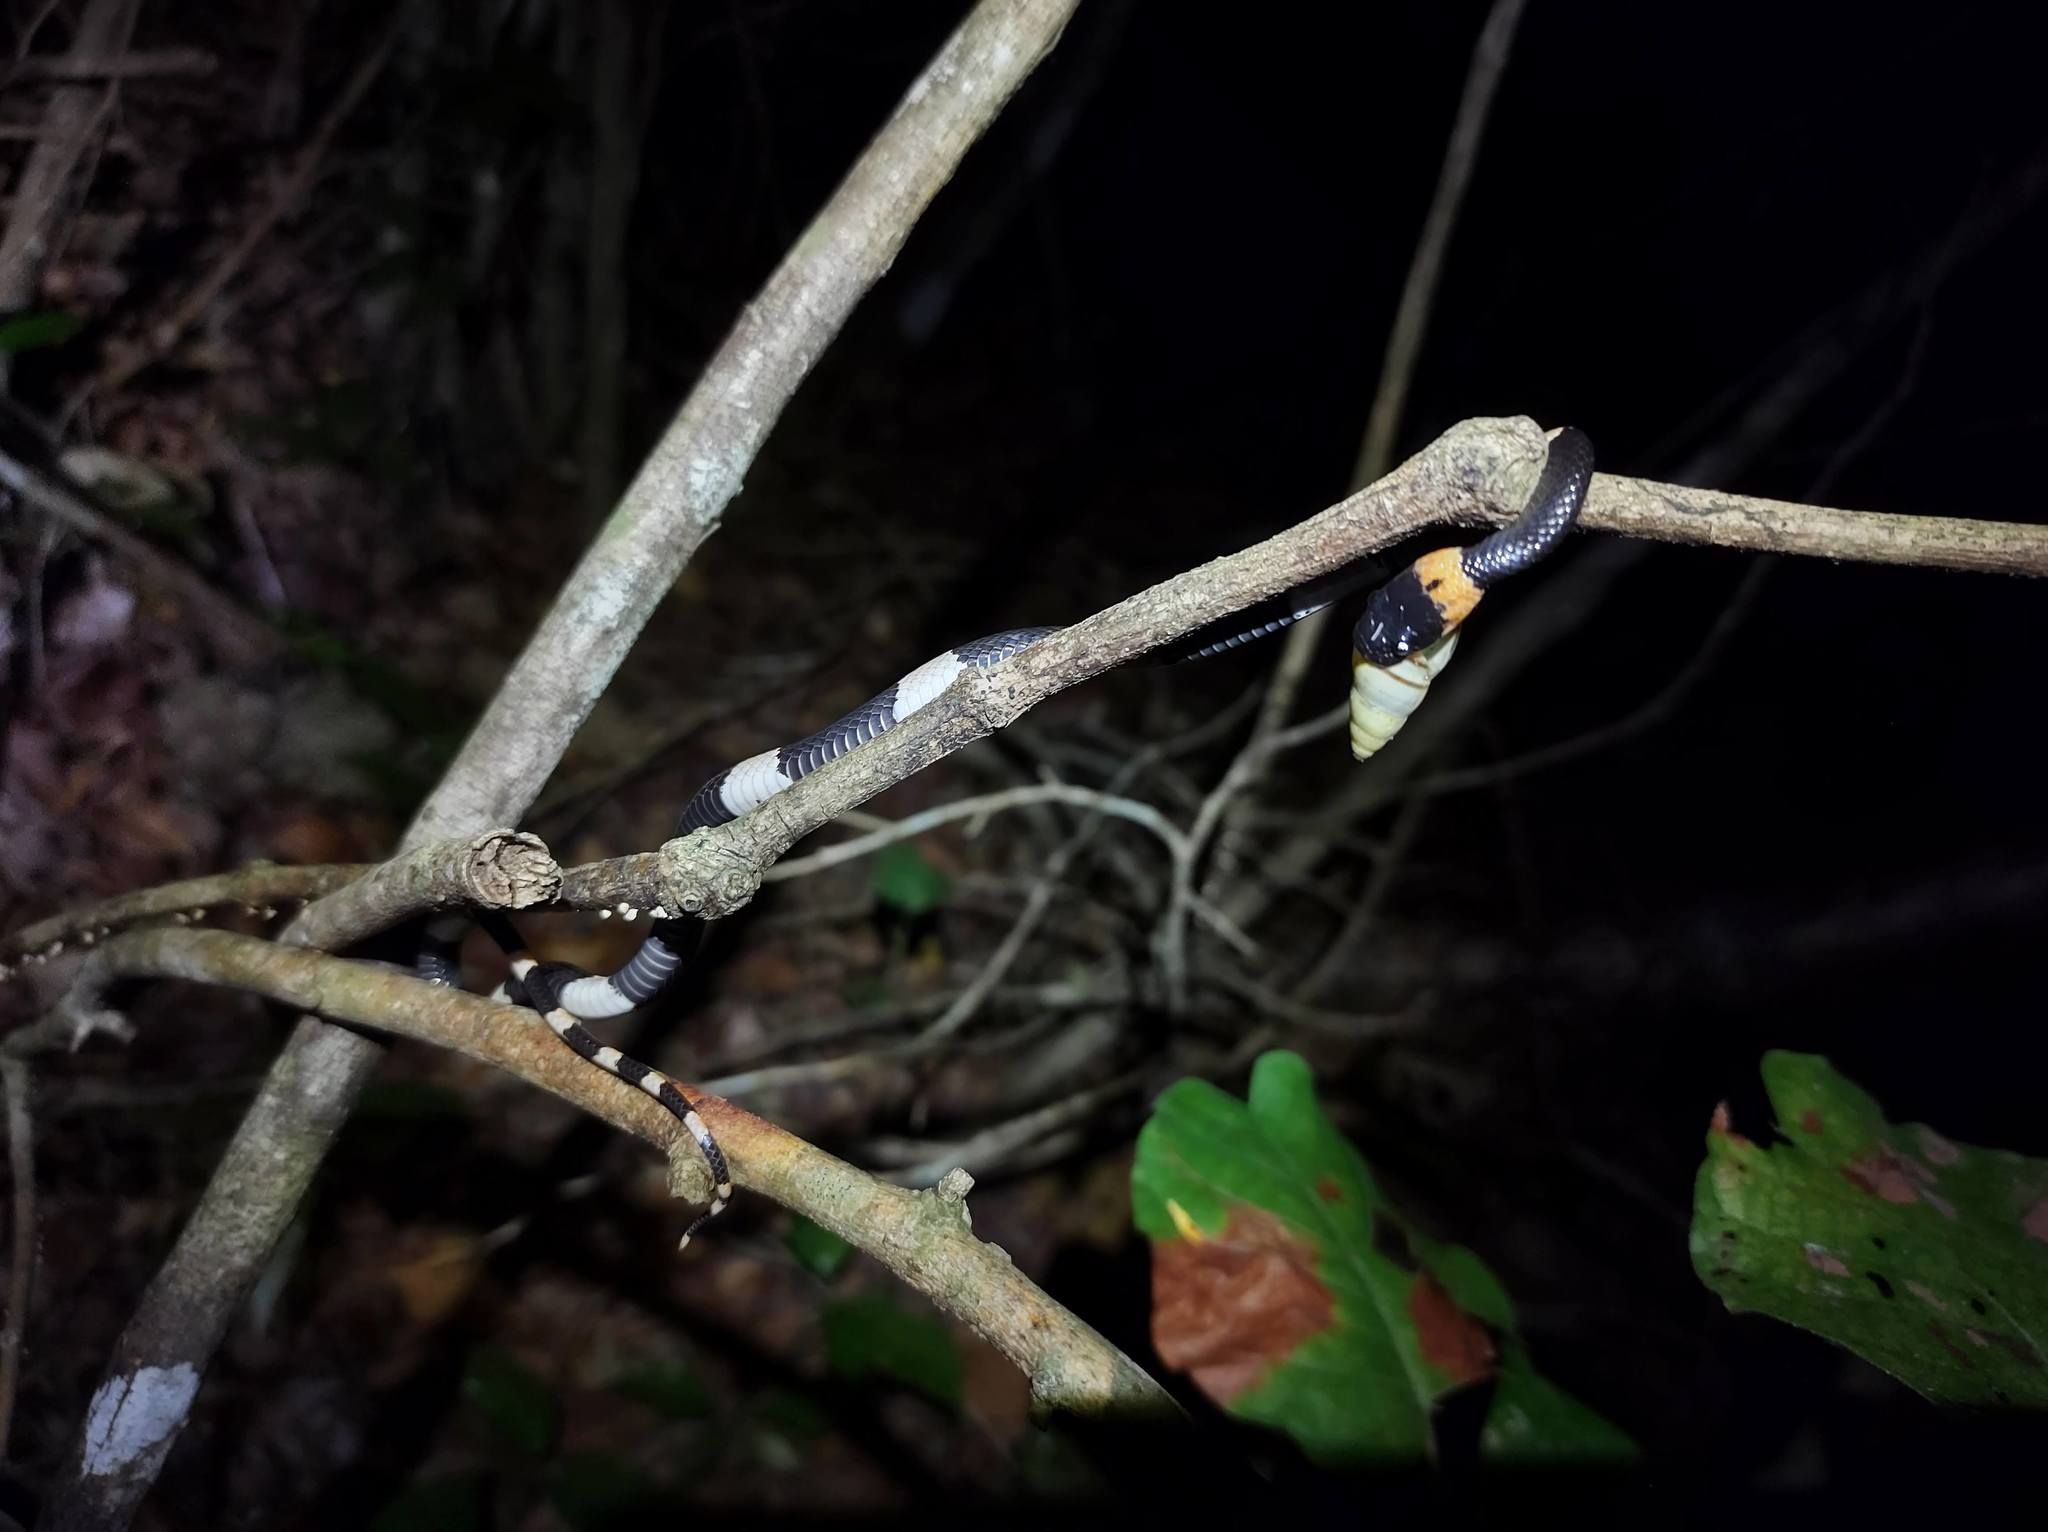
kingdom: Animalia
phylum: Chordata
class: Squamata
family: Colubridae
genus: Dipsas
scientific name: Dipsas brevifacies
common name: Snail-eating thirst snake
